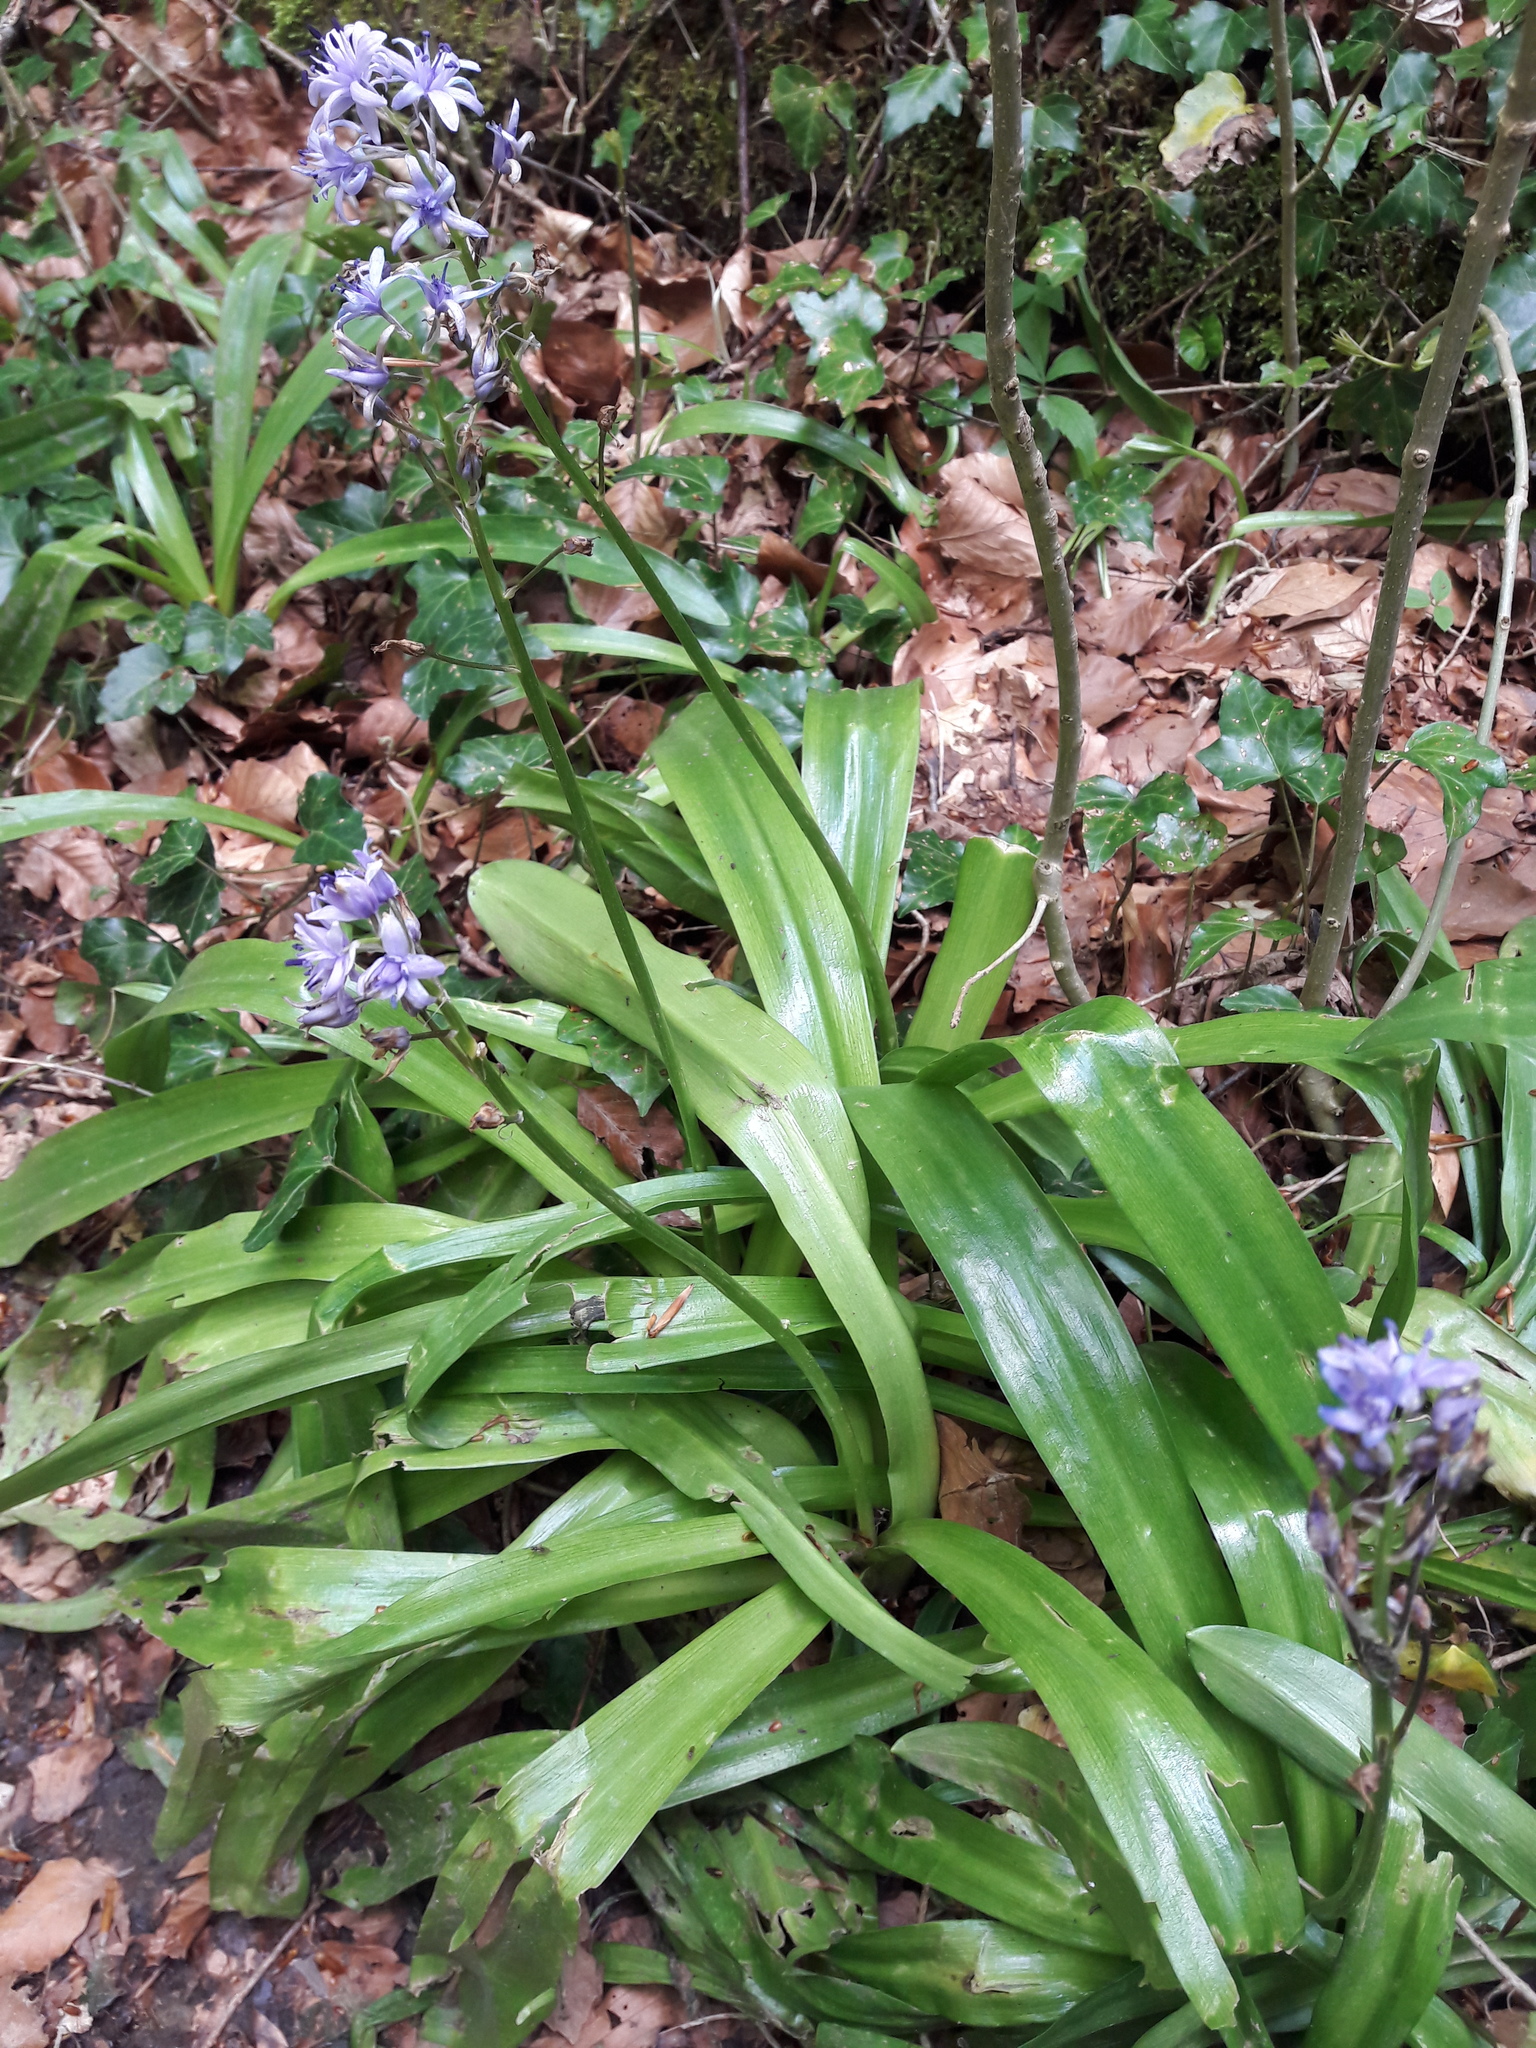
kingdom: Plantae
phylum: Tracheophyta
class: Liliopsida
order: Asparagales
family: Asparagaceae
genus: Scilla
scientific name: Scilla lilio-hyacinthus
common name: Pyrenean squill
